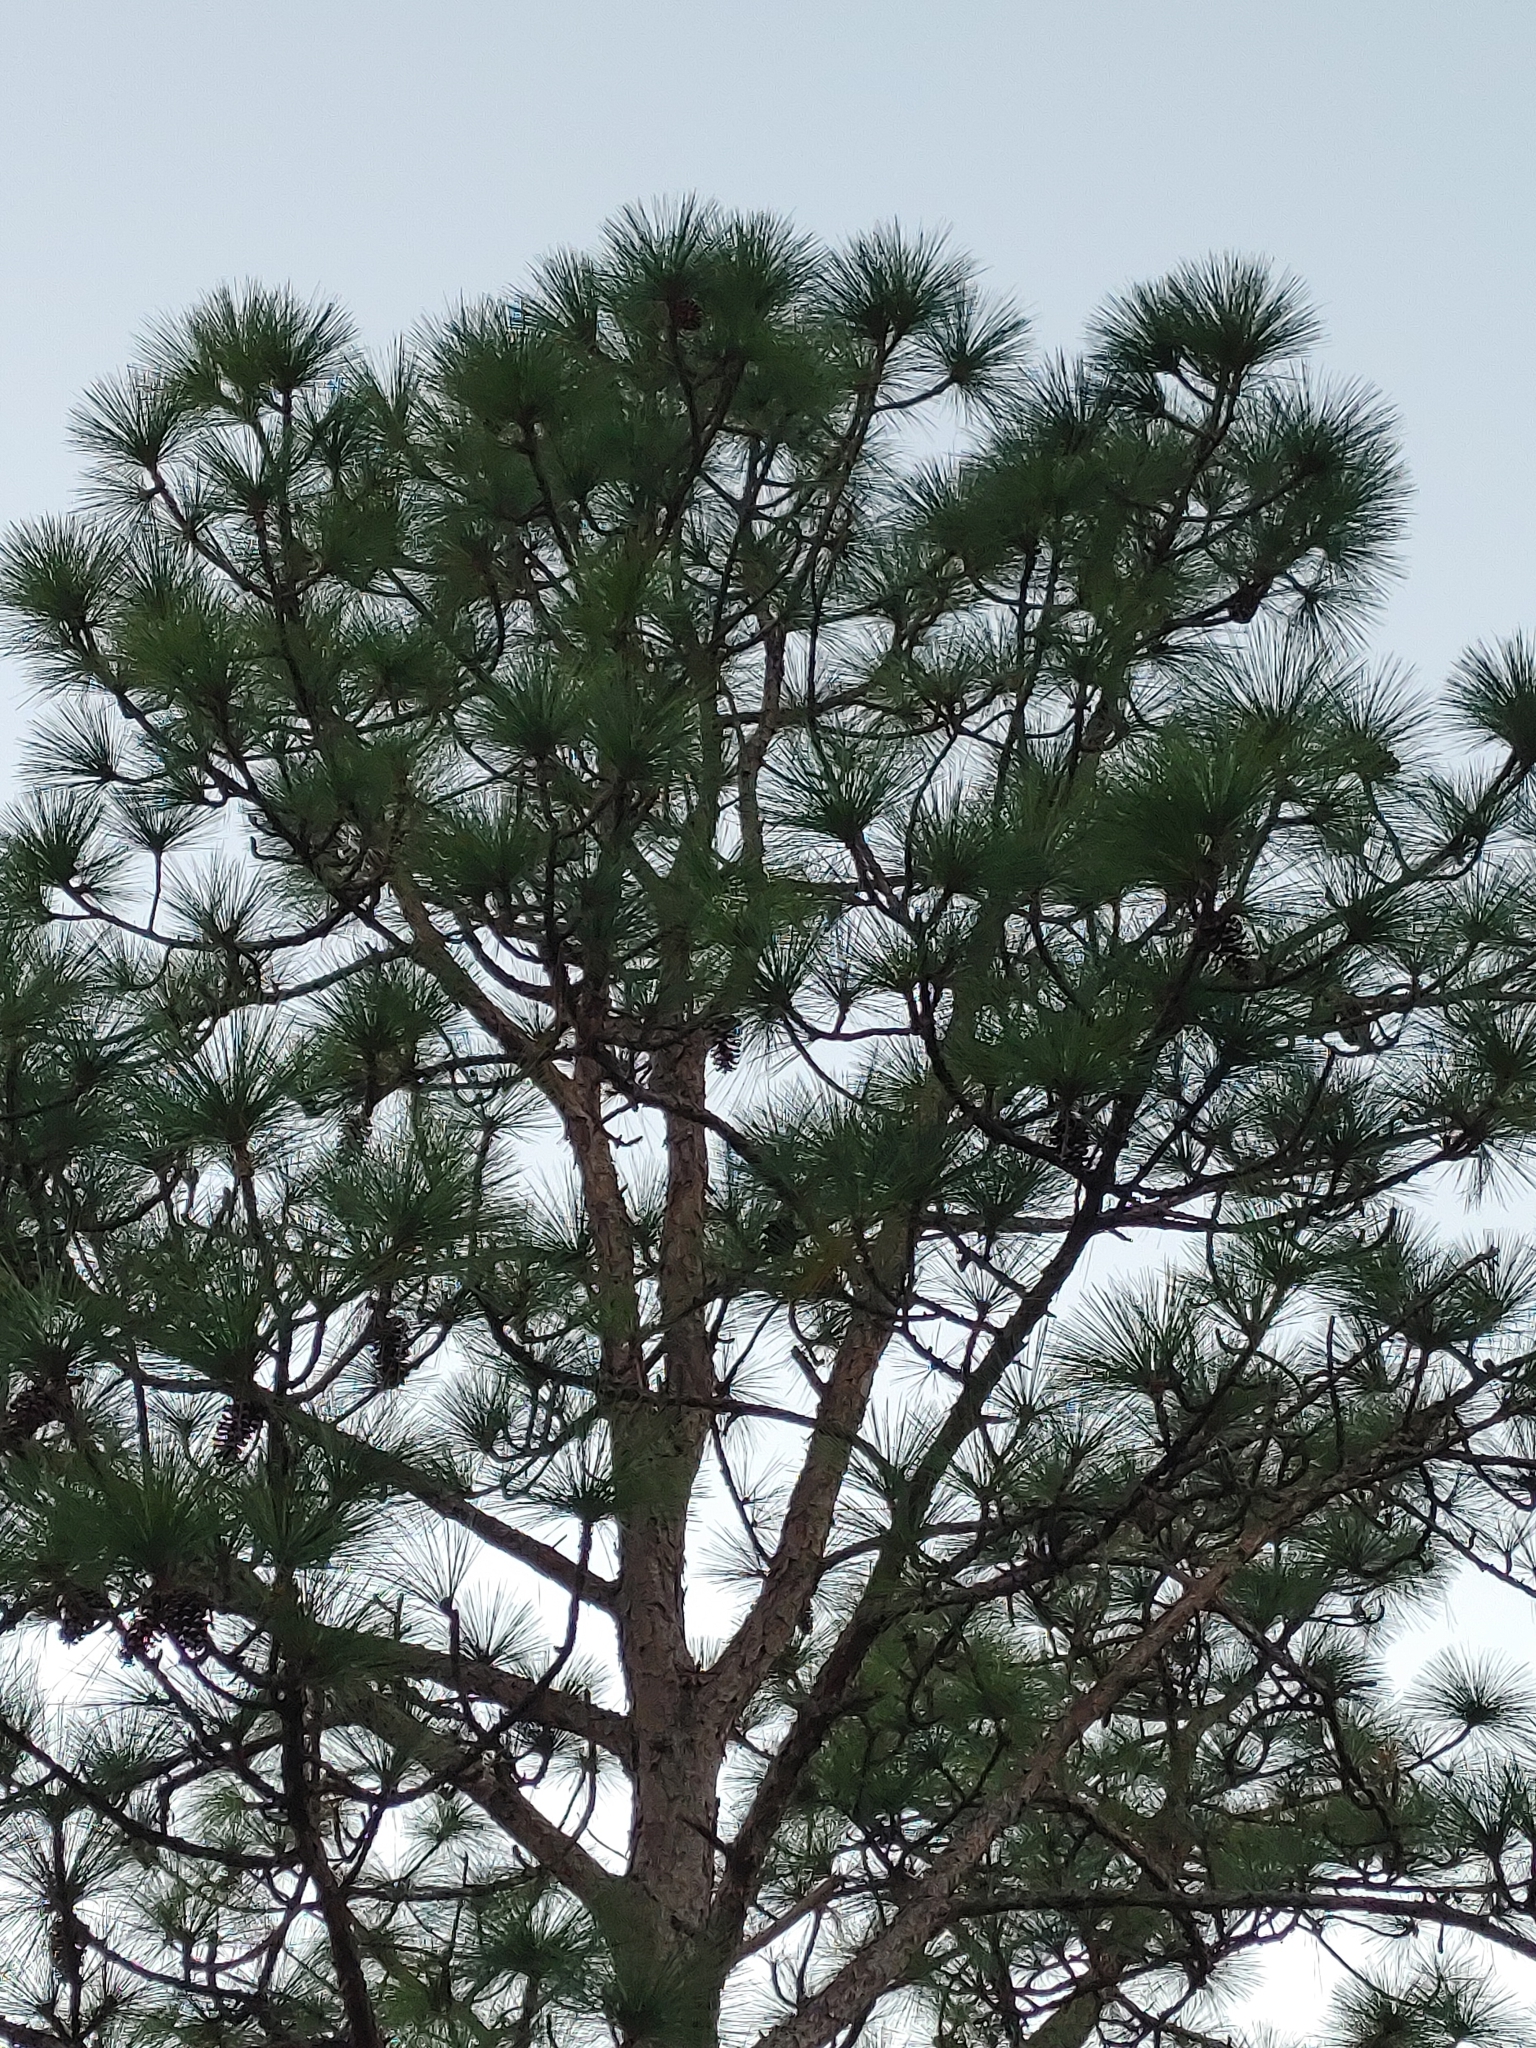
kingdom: Plantae
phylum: Tracheophyta
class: Pinopsida
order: Pinales
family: Pinaceae
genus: Pinus
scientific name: Pinus palustris
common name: Longleaf pine
